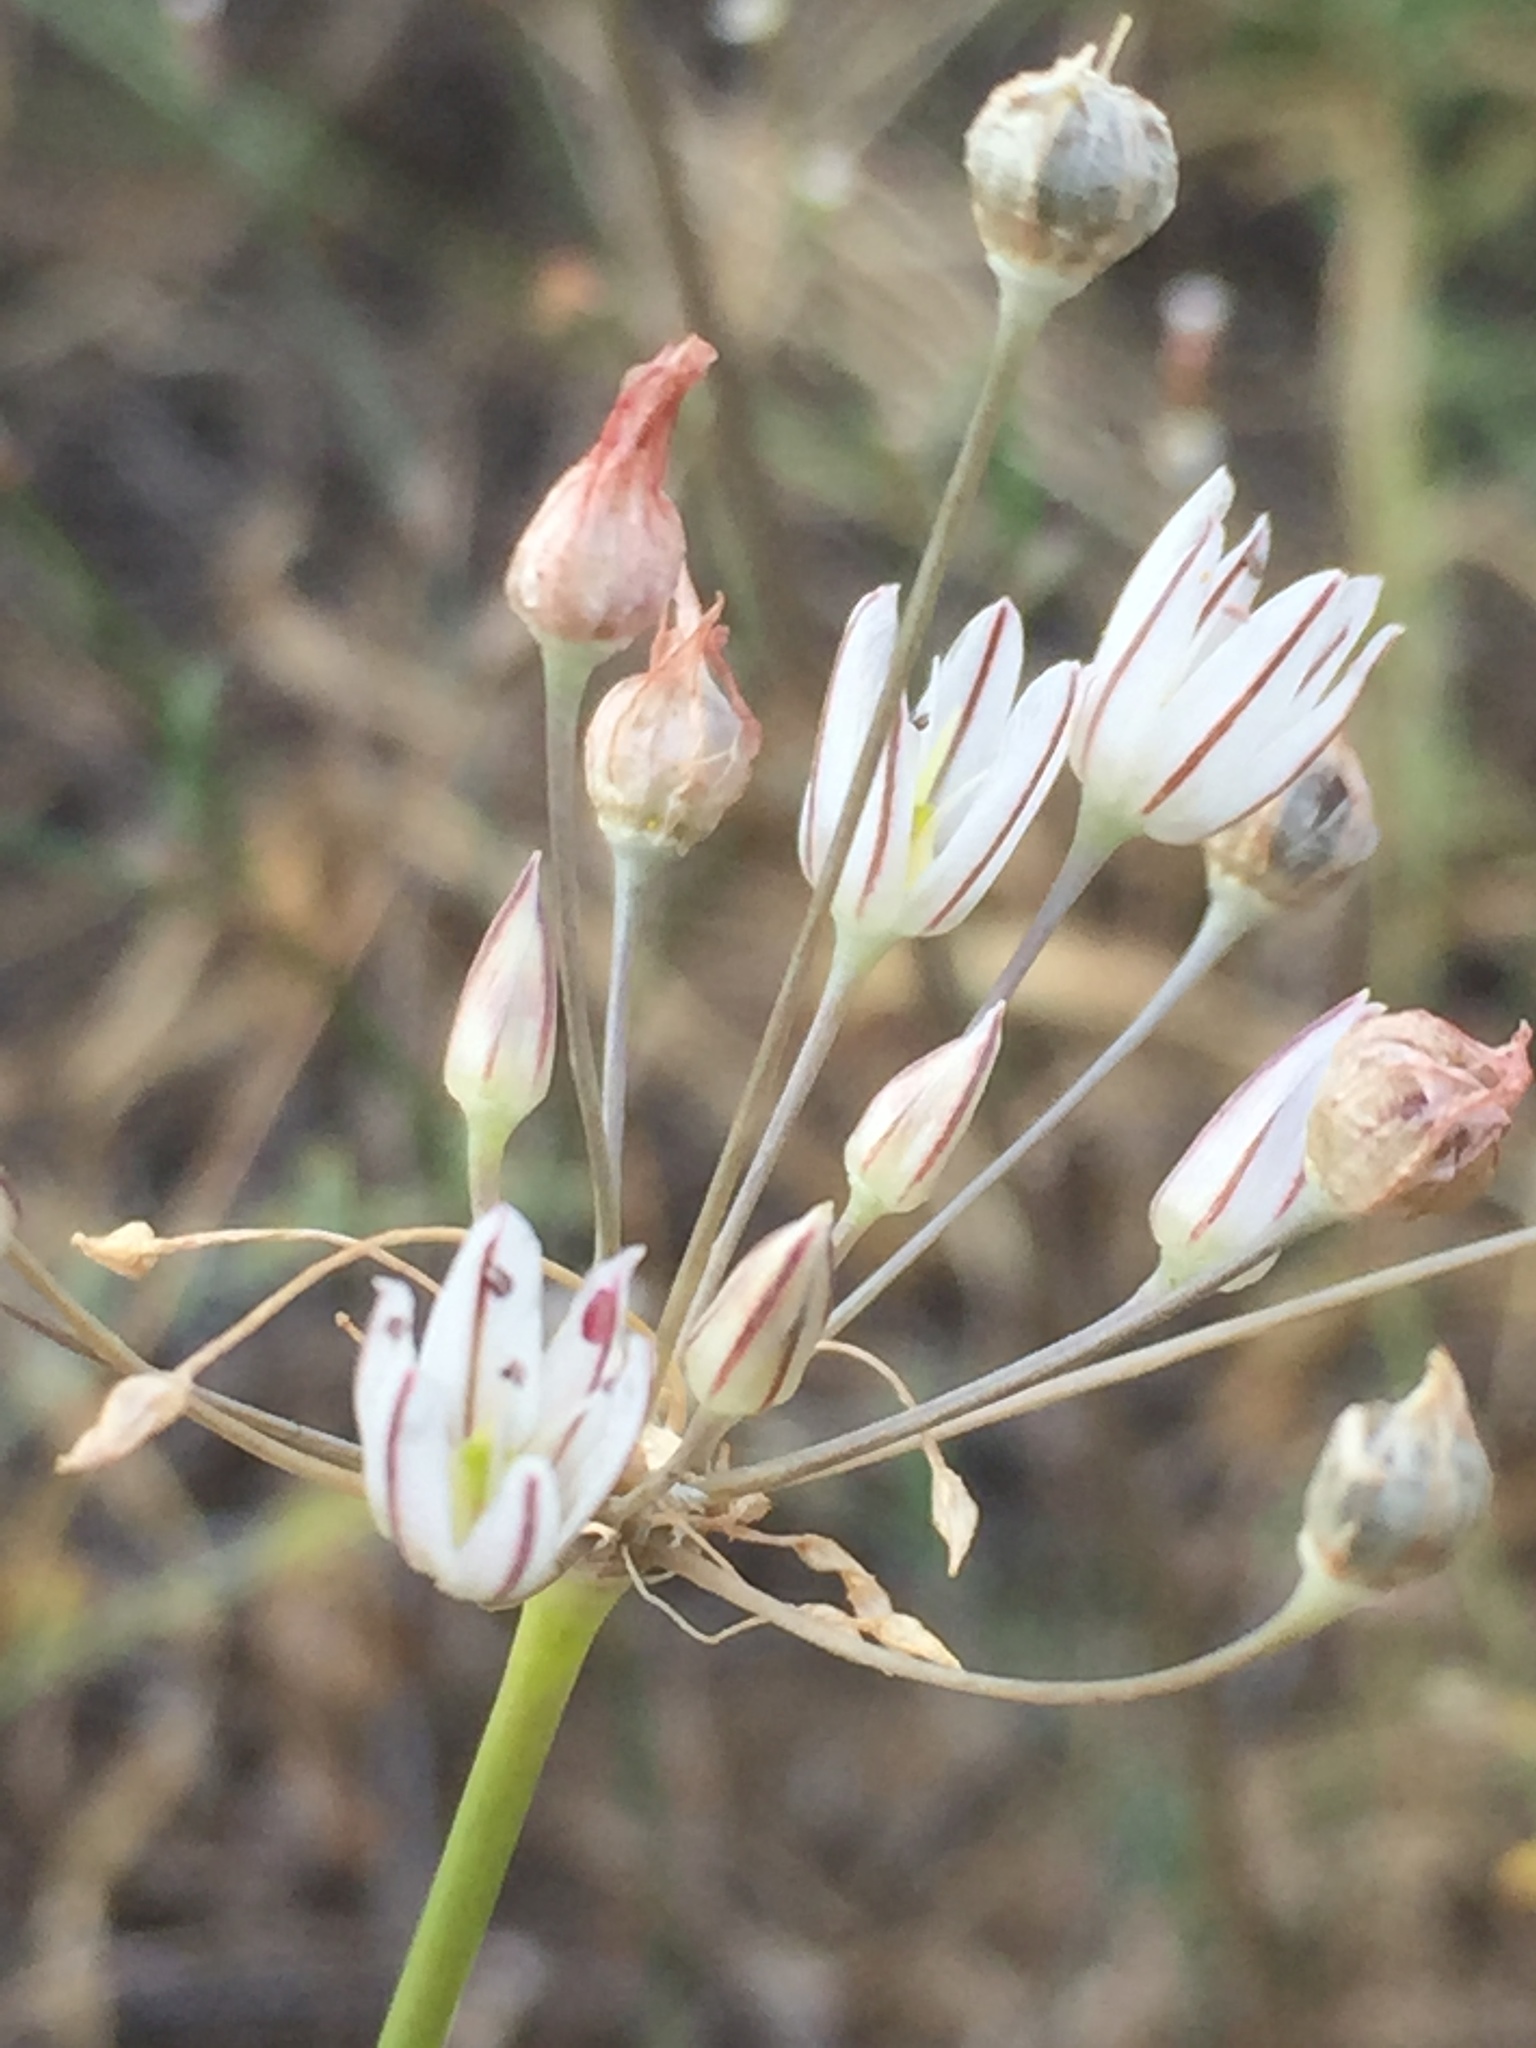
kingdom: Plantae
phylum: Tracheophyta
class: Liliopsida
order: Asparagales
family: Amaryllidaceae
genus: Allium
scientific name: Allium inaequale
